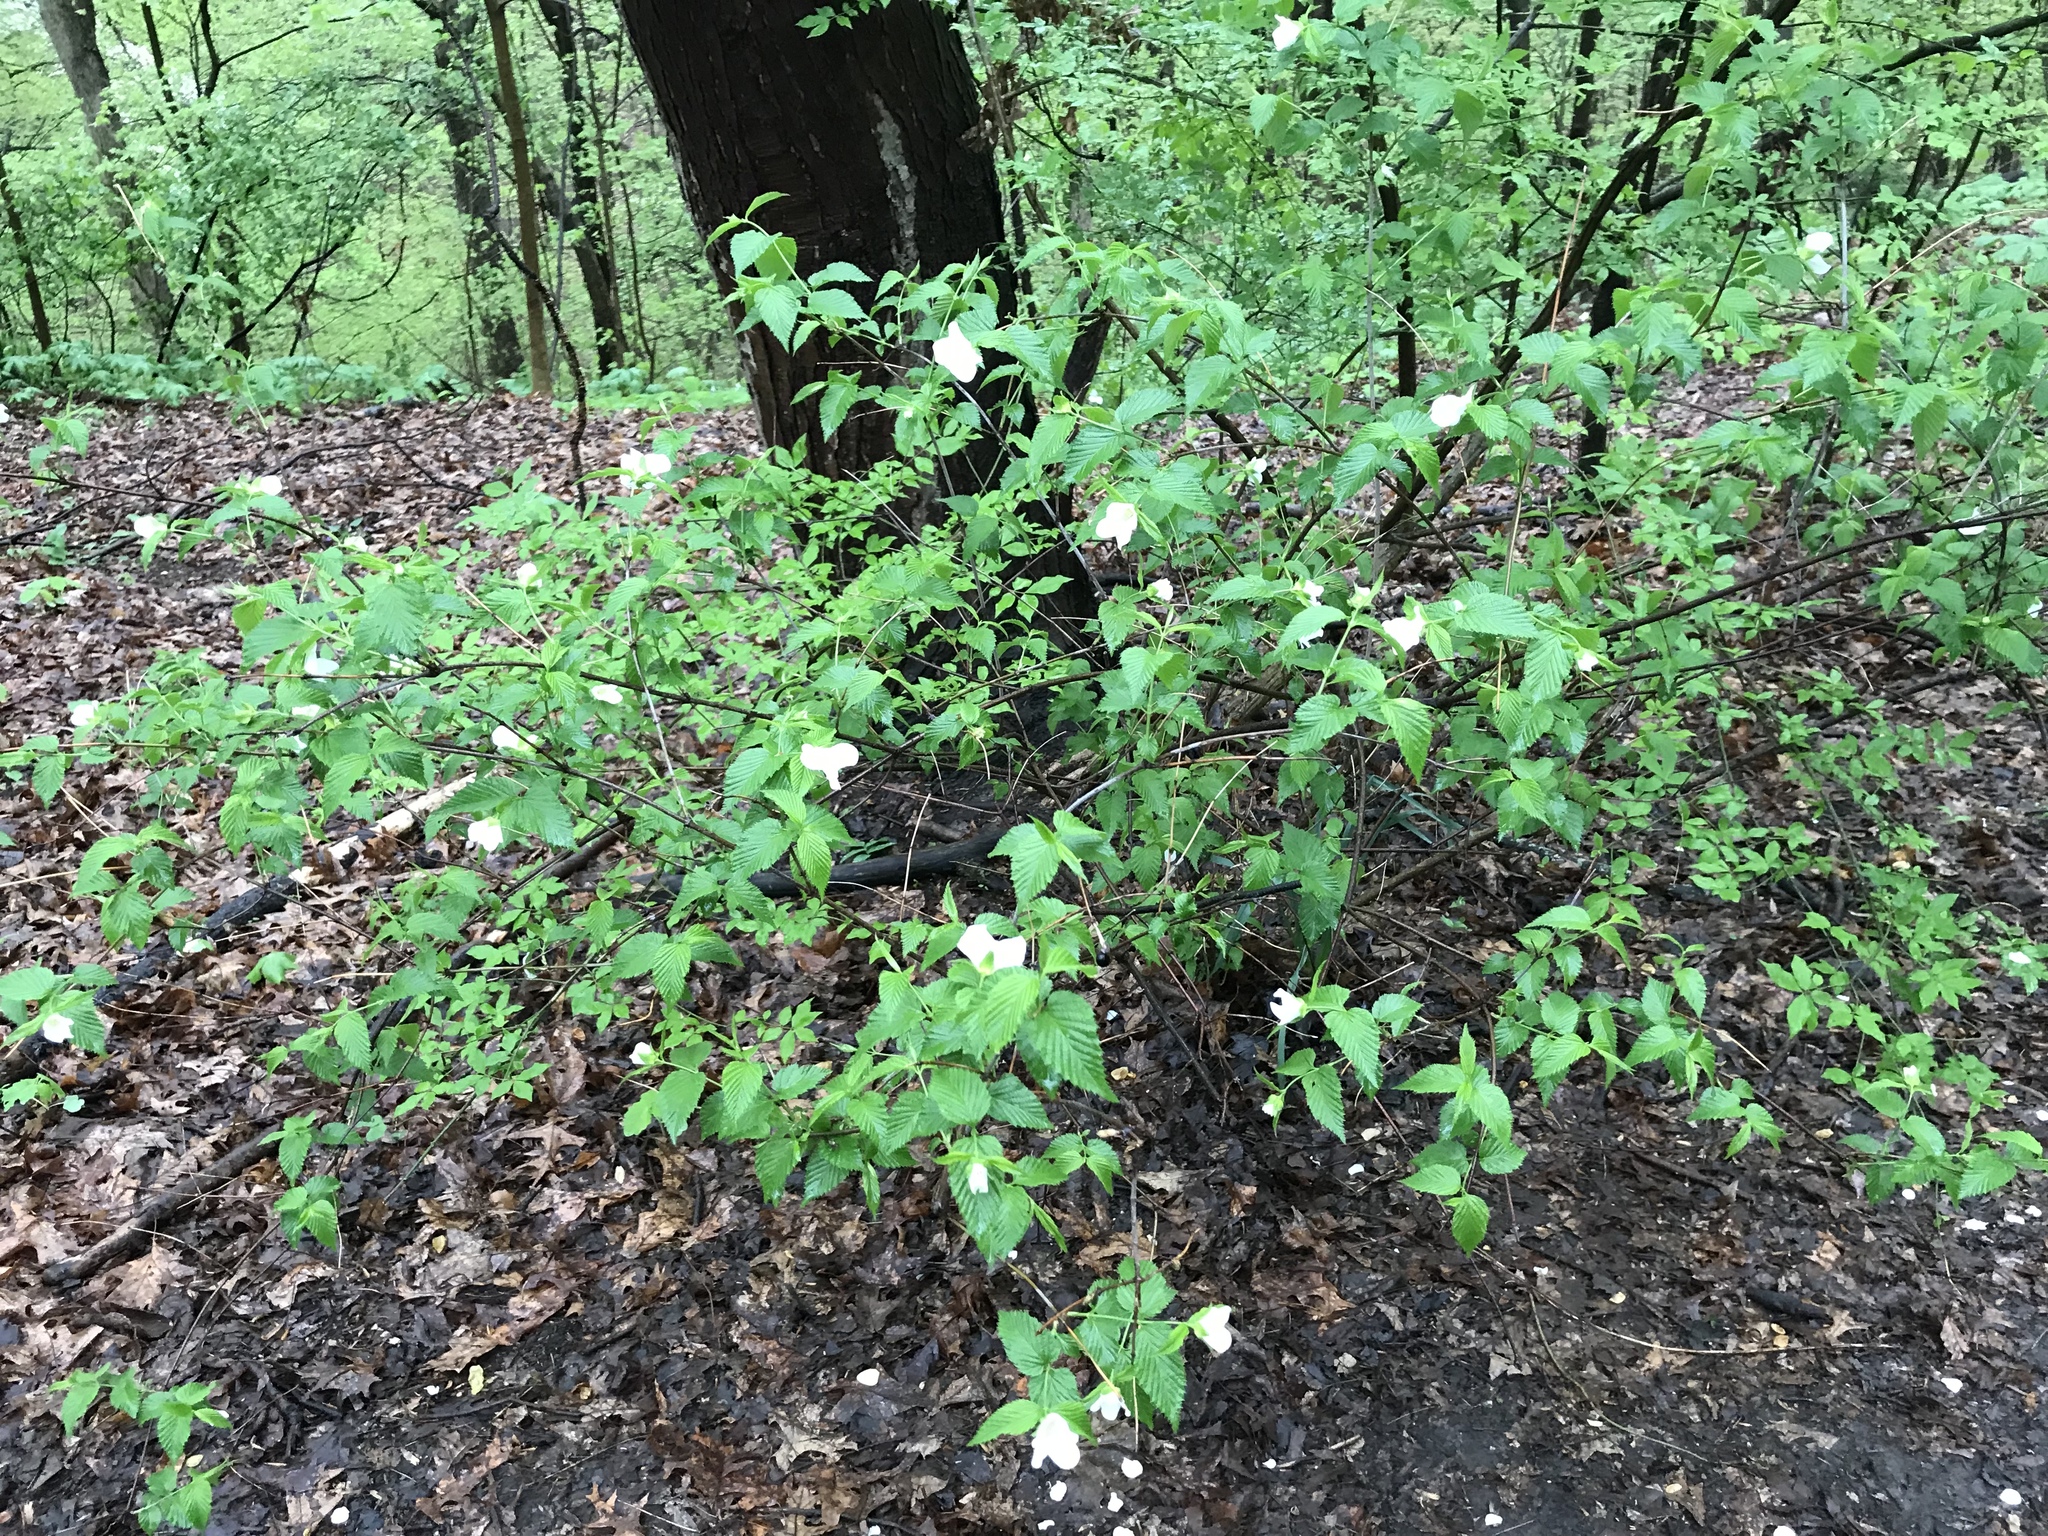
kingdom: Plantae
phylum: Tracheophyta
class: Magnoliopsida
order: Rosales
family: Rosaceae
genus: Rhodotypos
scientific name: Rhodotypos scandens
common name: Jetbead
